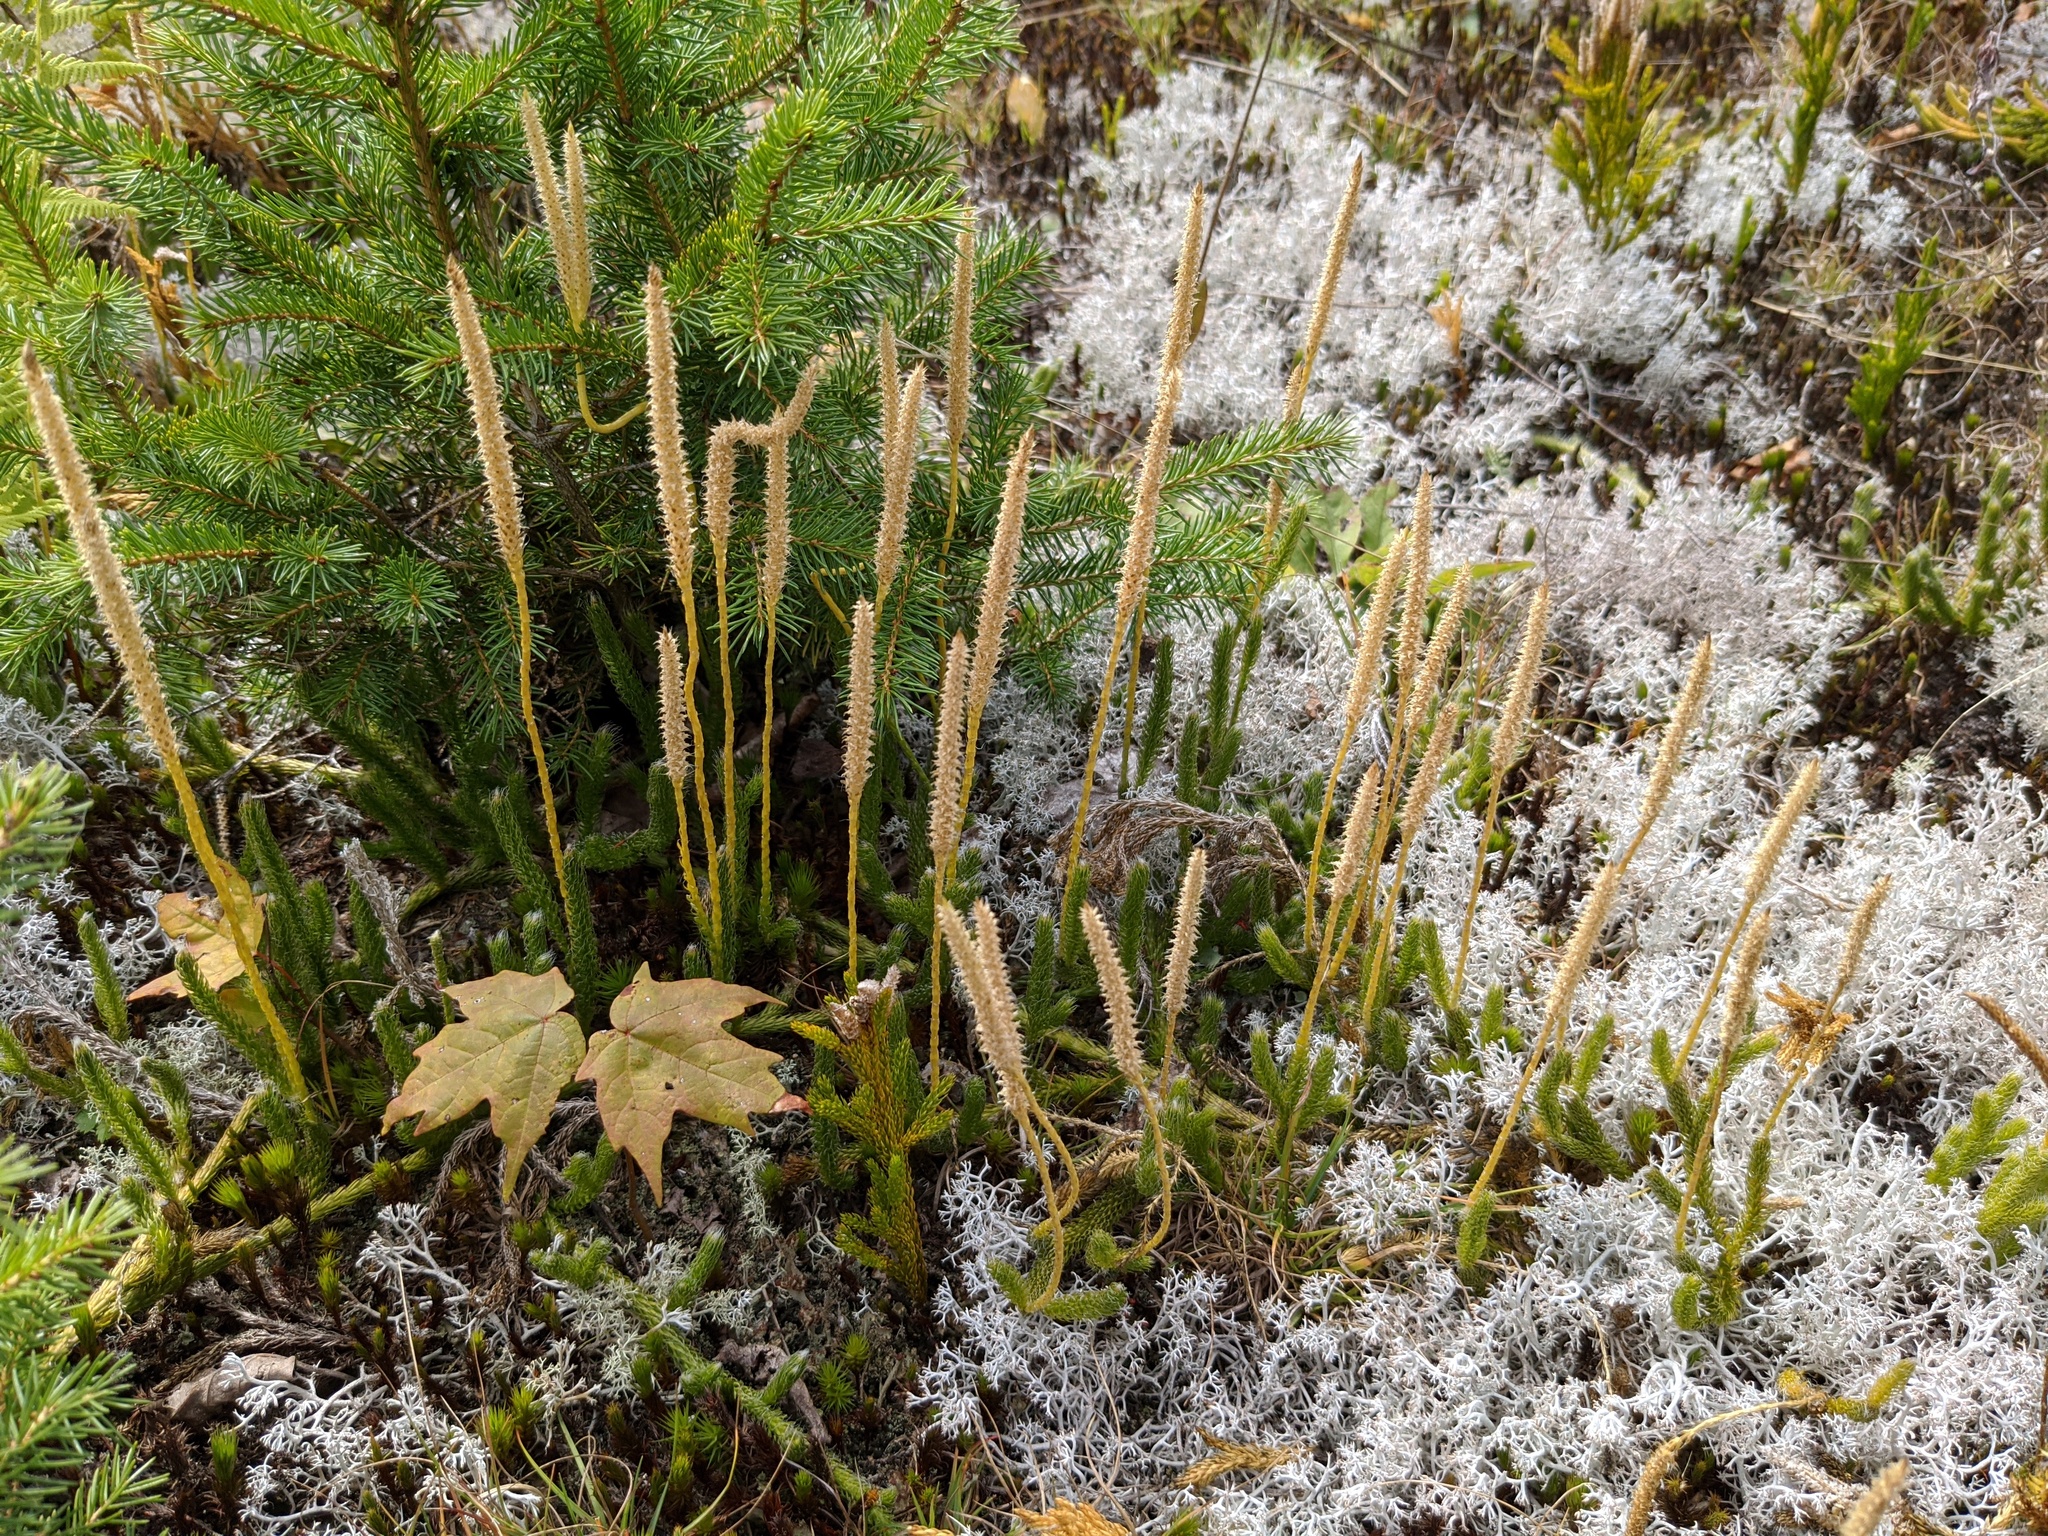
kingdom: Plantae
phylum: Tracheophyta
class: Lycopodiopsida
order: Lycopodiales
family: Lycopodiaceae
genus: Lycopodium
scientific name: Lycopodium lagopus
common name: One-cone clubmoss
